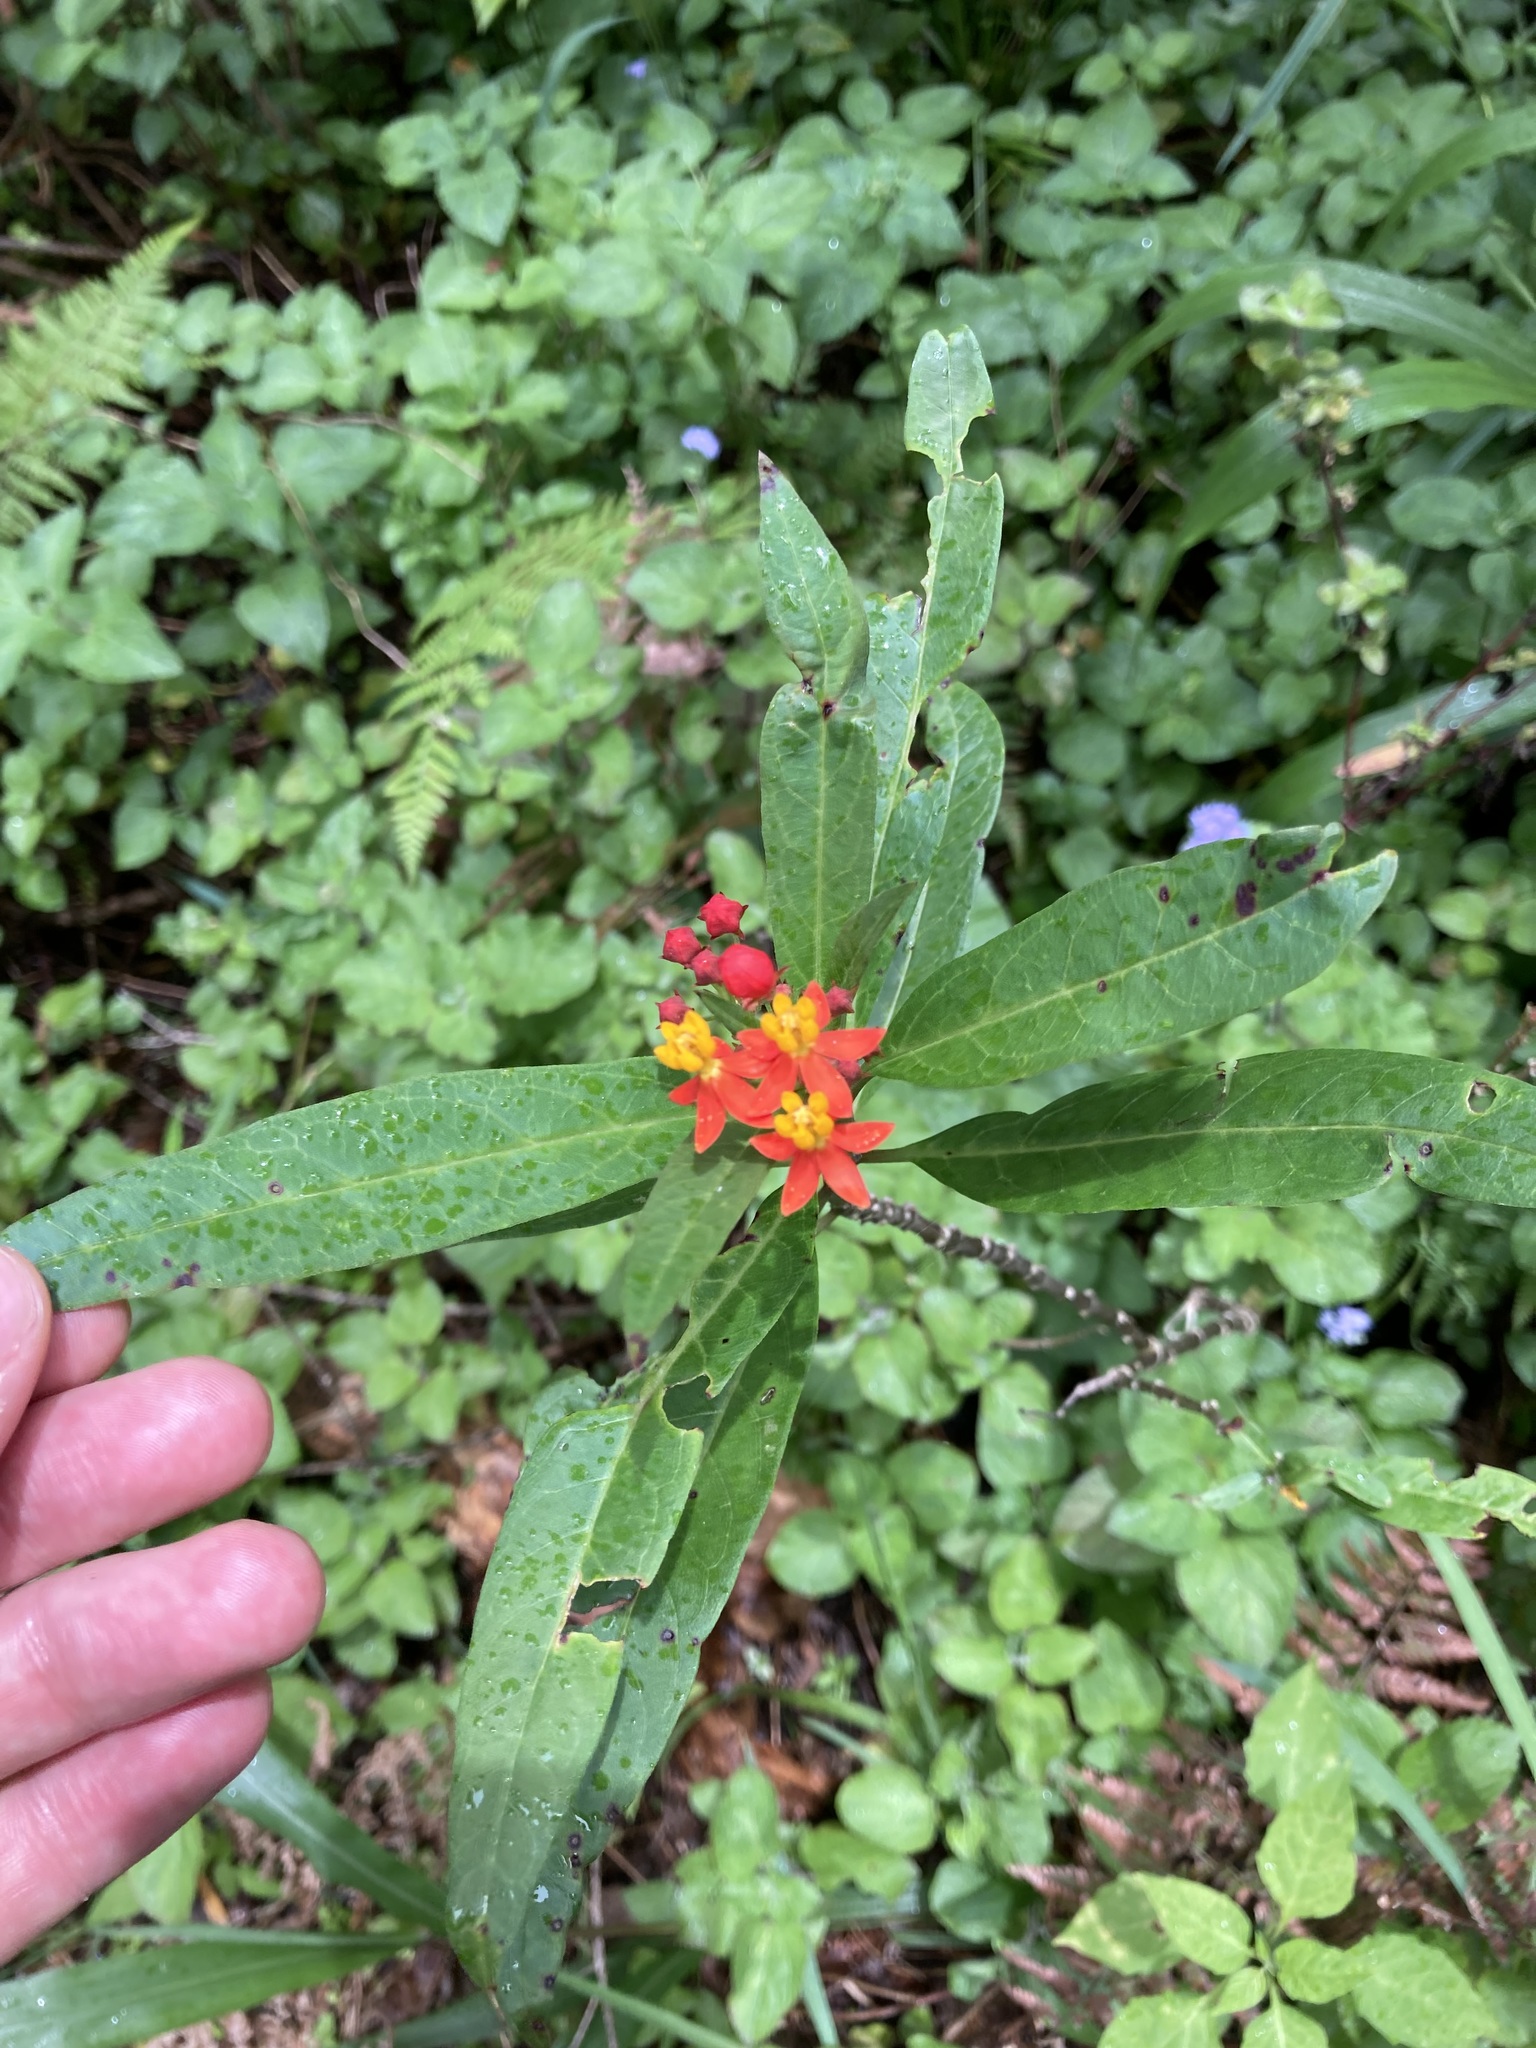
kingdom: Plantae
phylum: Tracheophyta
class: Magnoliopsida
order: Gentianales
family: Apocynaceae
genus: Asclepias
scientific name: Asclepias curassavica
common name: Bloodflower
